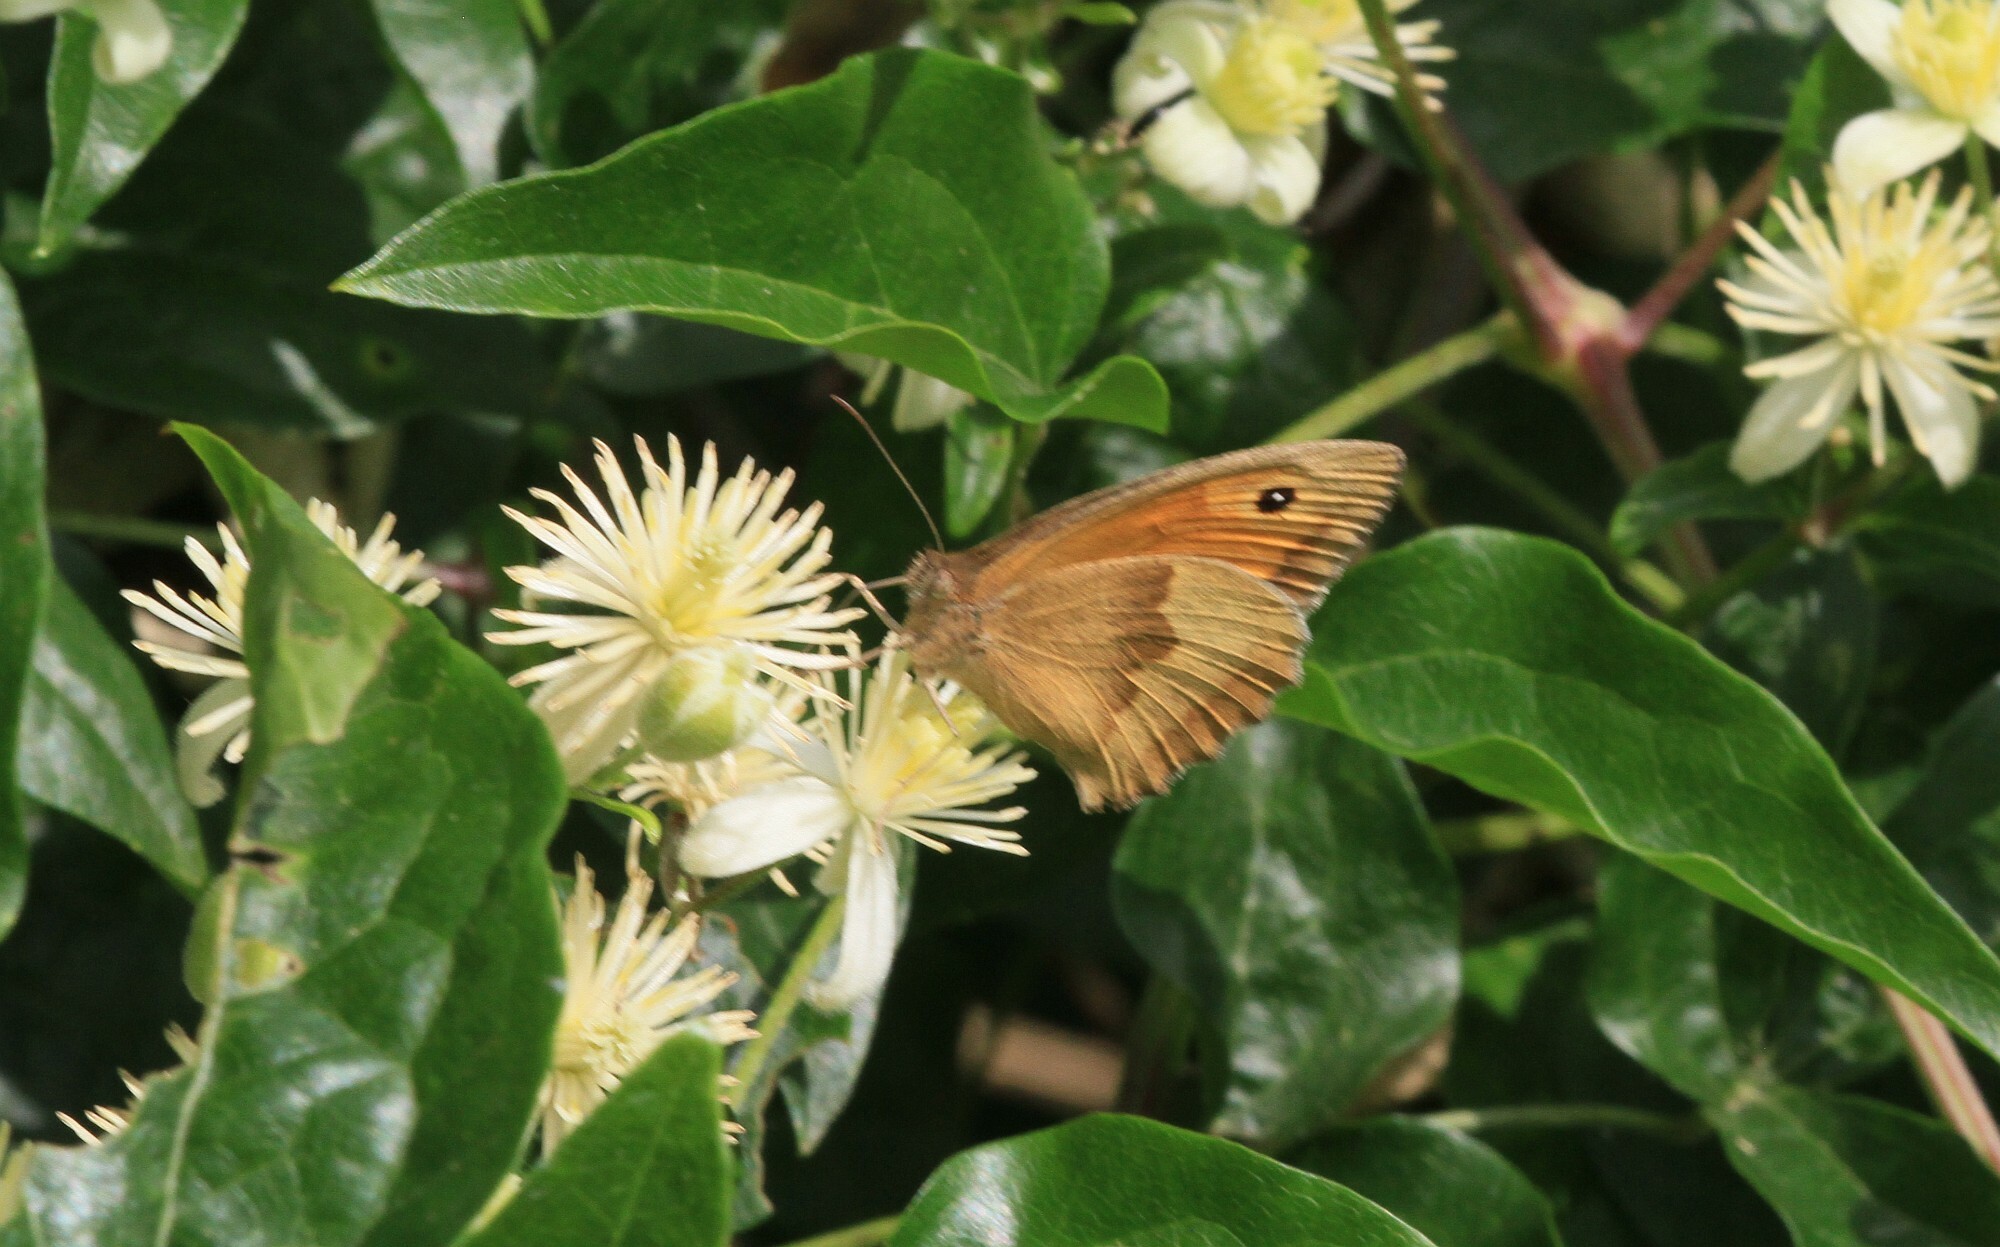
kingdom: Animalia
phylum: Arthropoda
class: Insecta
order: Lepidoptera
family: Nymphalidae
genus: Maniola
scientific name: Maniola jurtina
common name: Meadow brown
